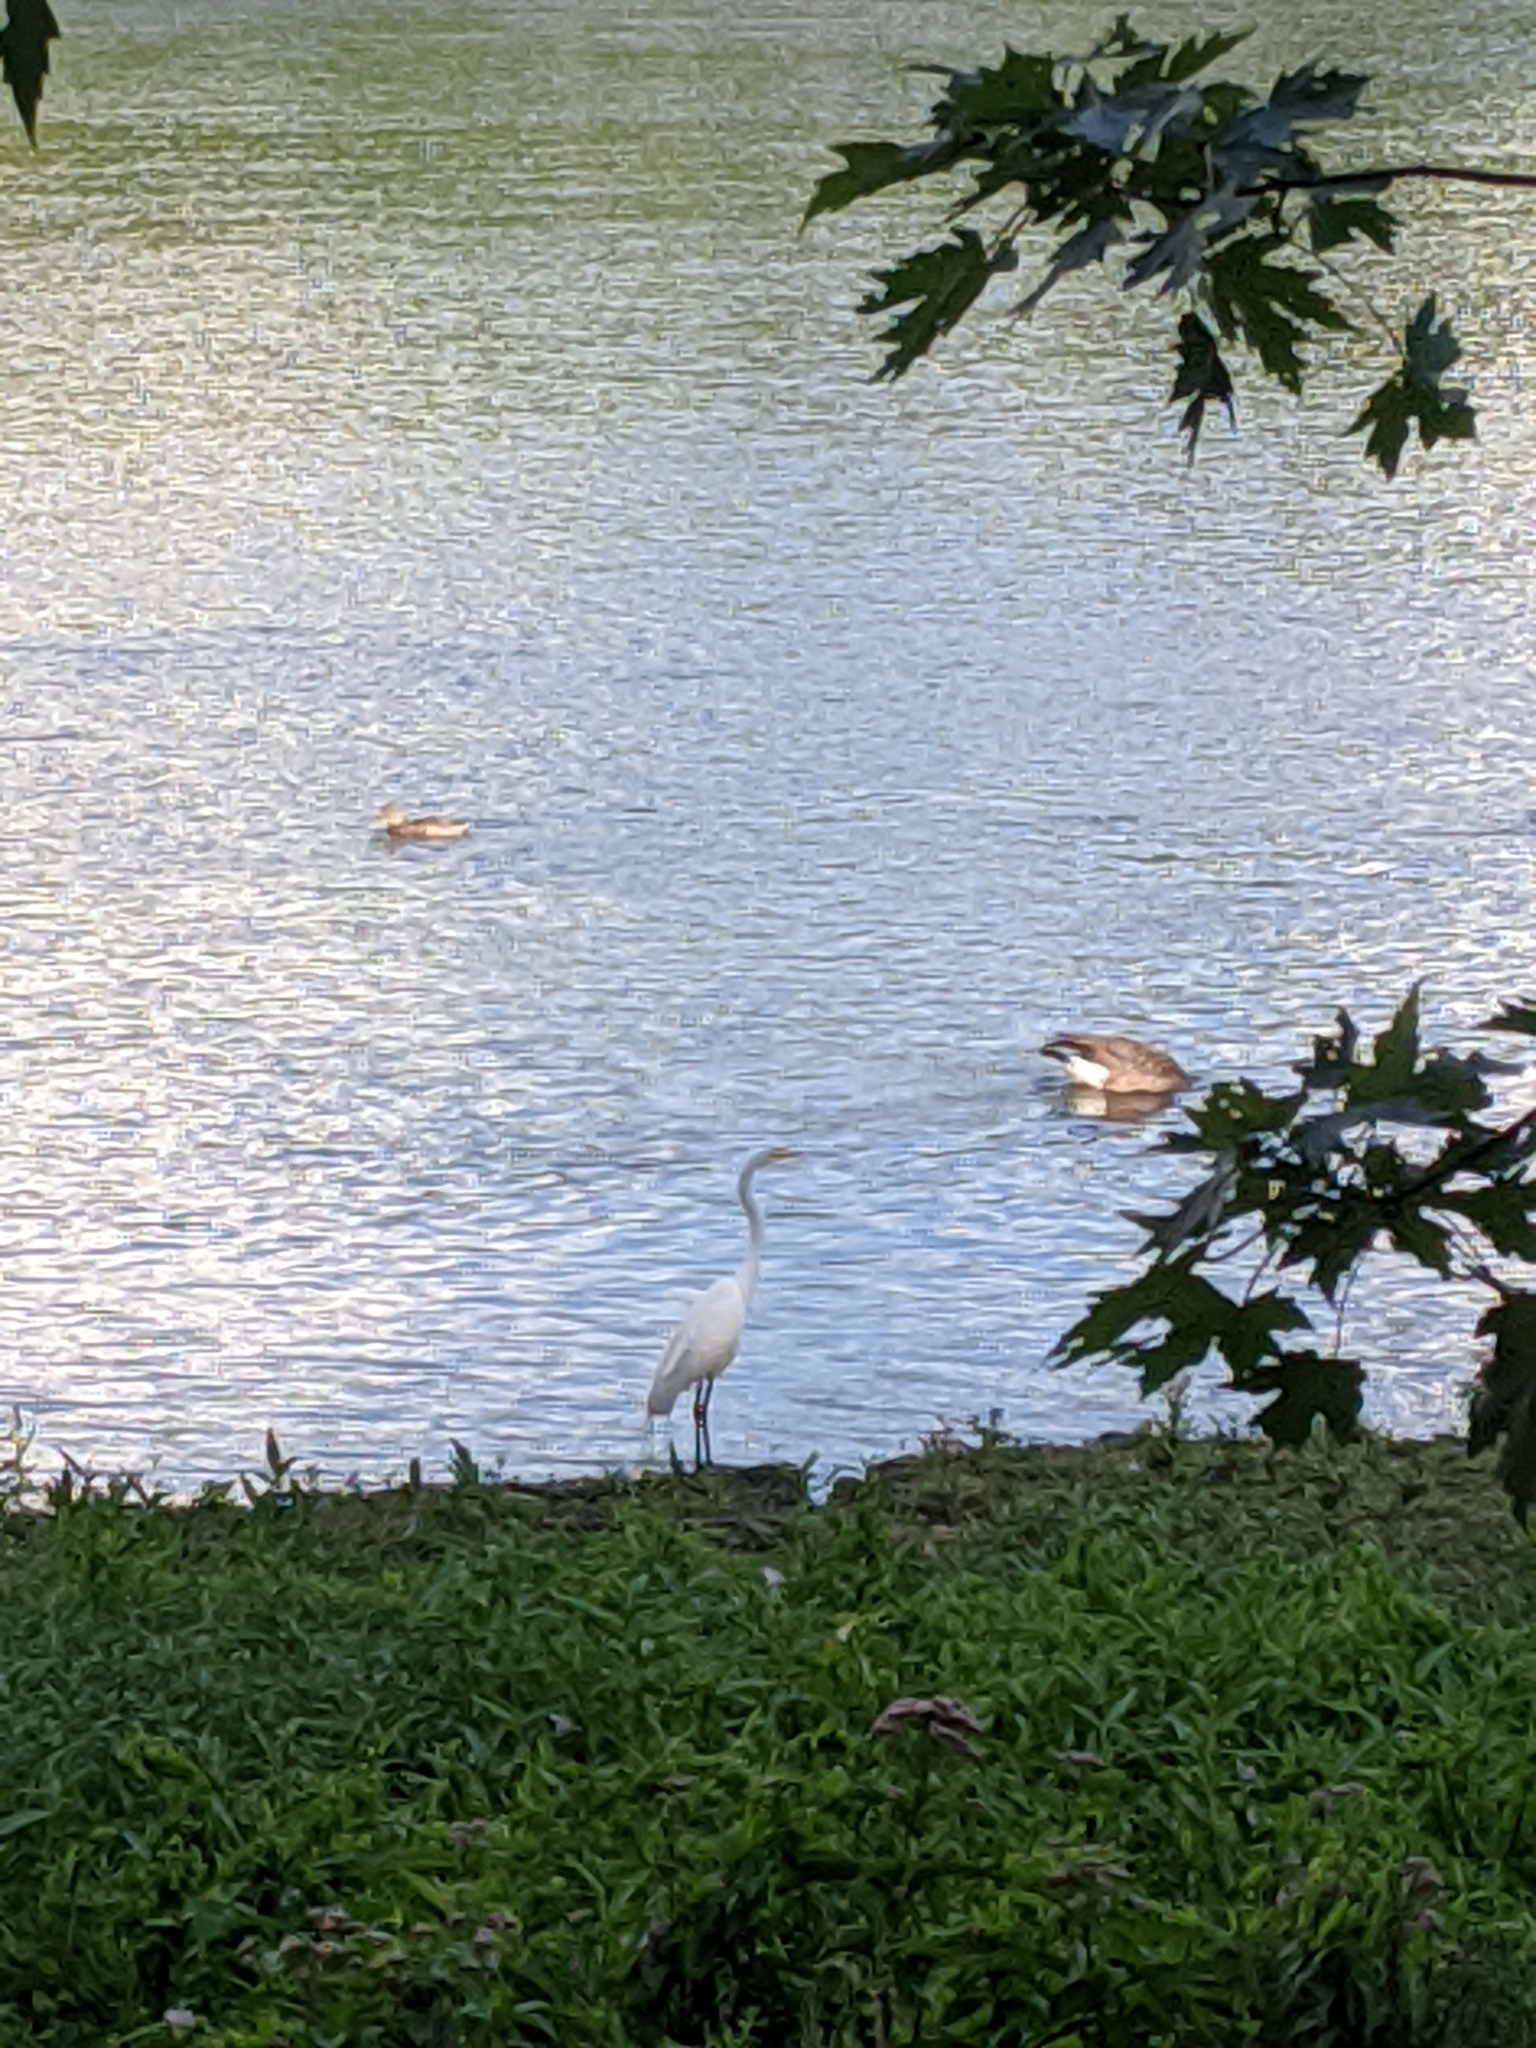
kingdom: Animalia
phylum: Chordata
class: Aves
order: Pelecaniformes
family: Ardeidae
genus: Ardea
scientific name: Ardea alba
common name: Great egret
